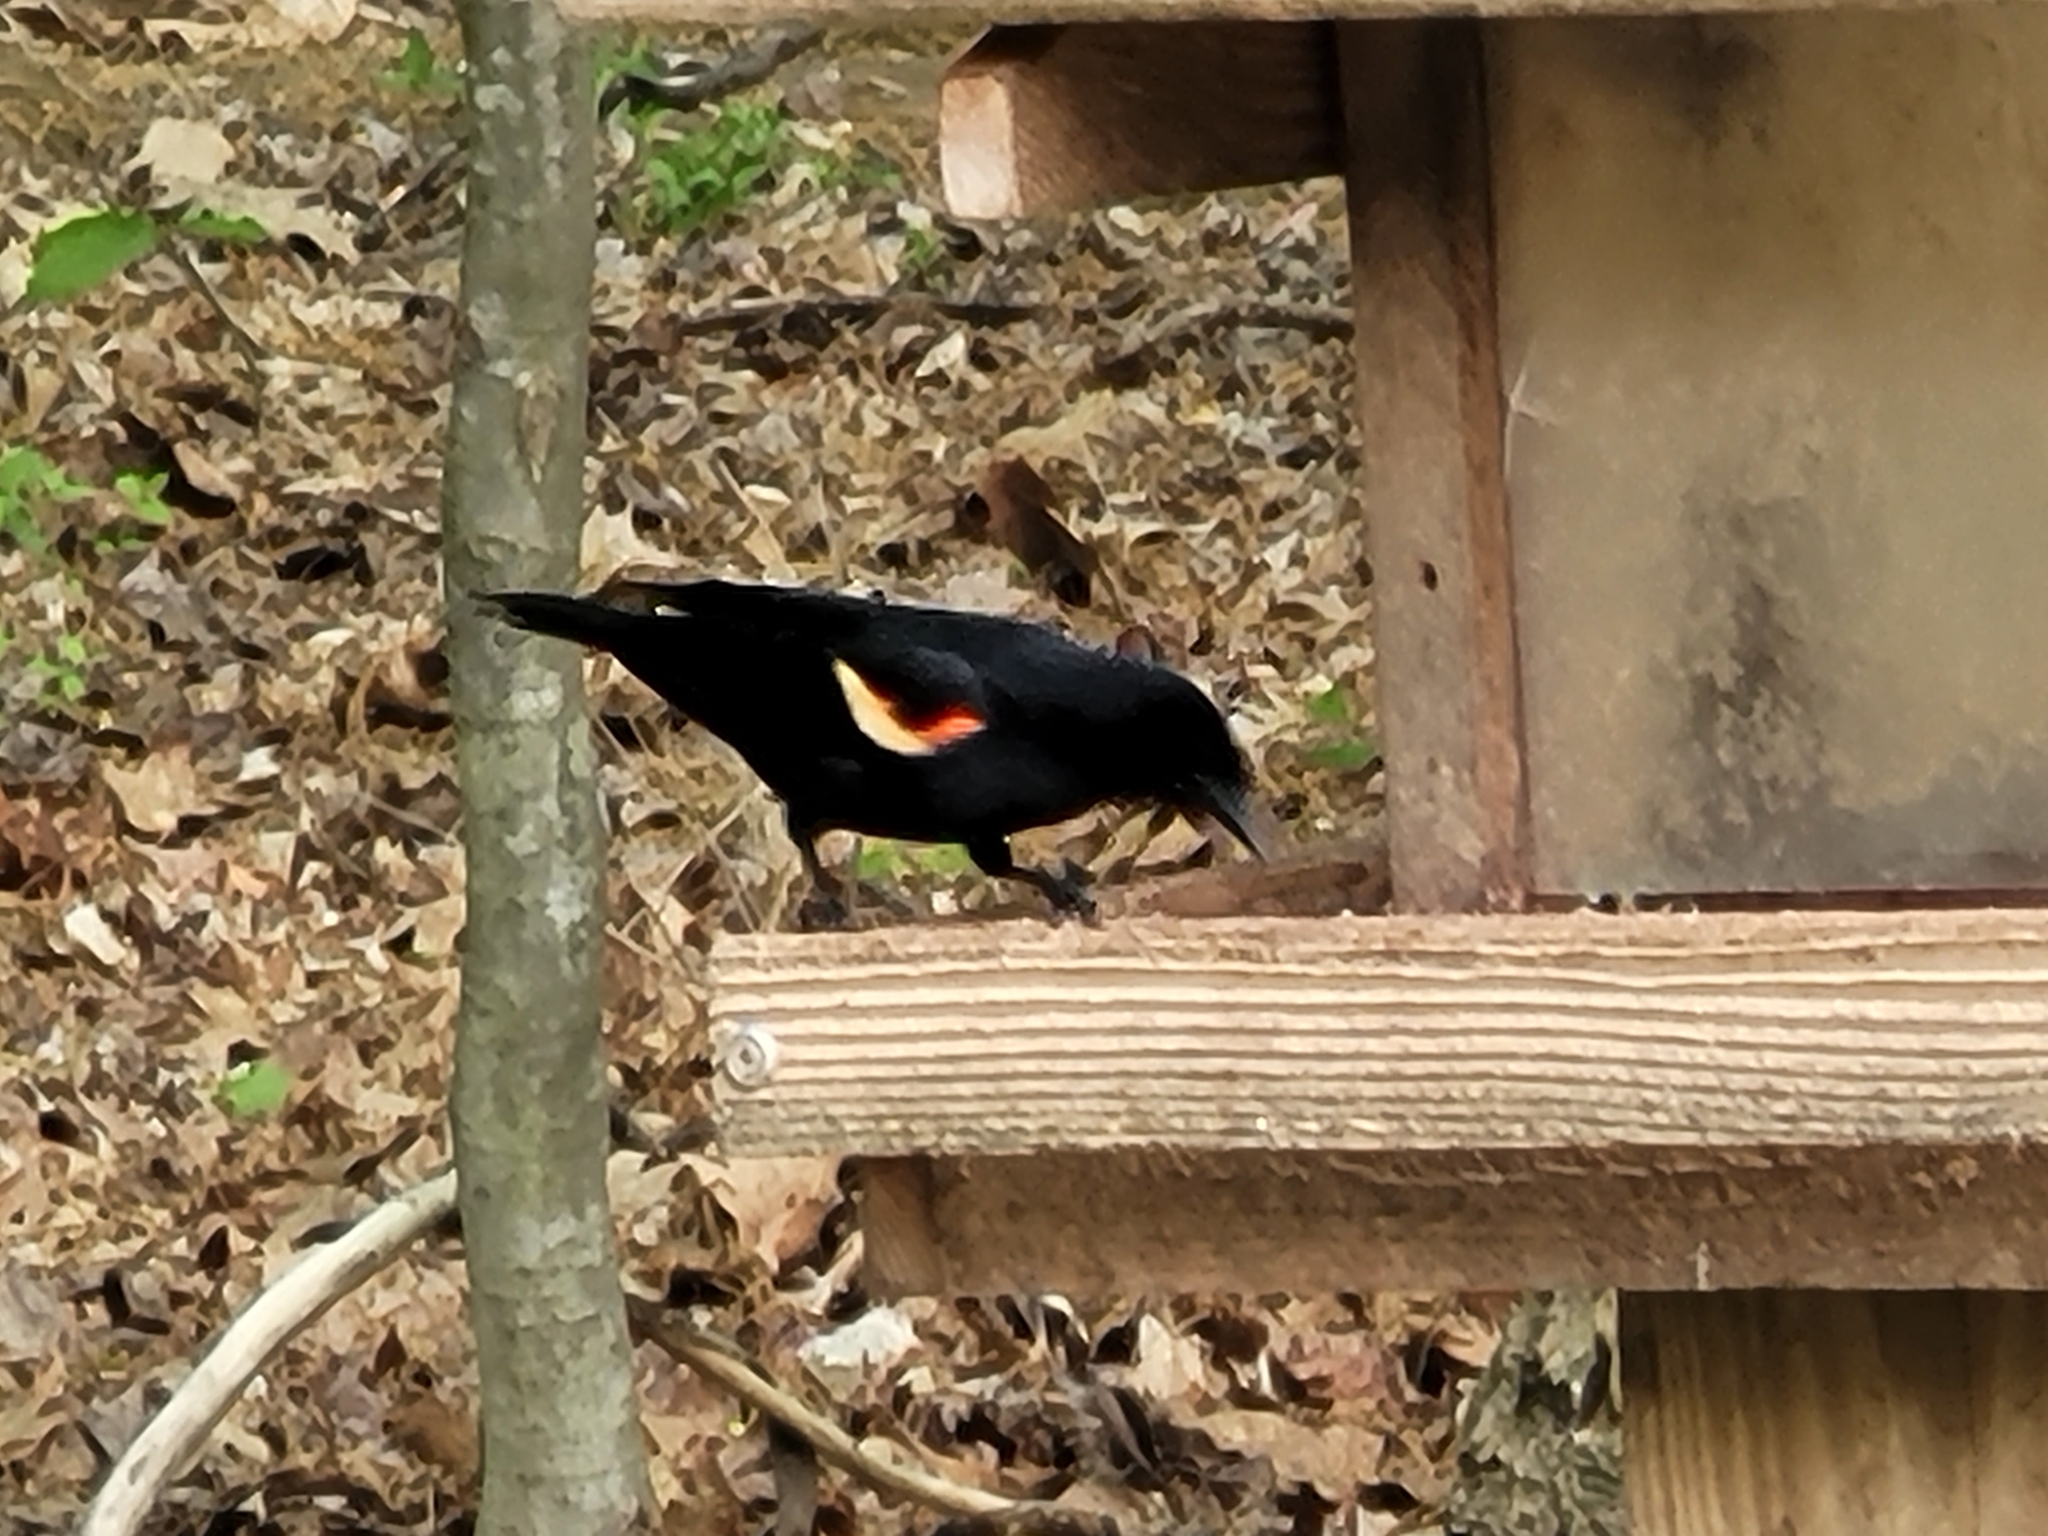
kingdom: Animalia
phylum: Chordata
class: Aves
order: Passeriformes
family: Icteridae
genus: Agelaius
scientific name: Agelaius phoeniceus
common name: Red-winged blackbird
